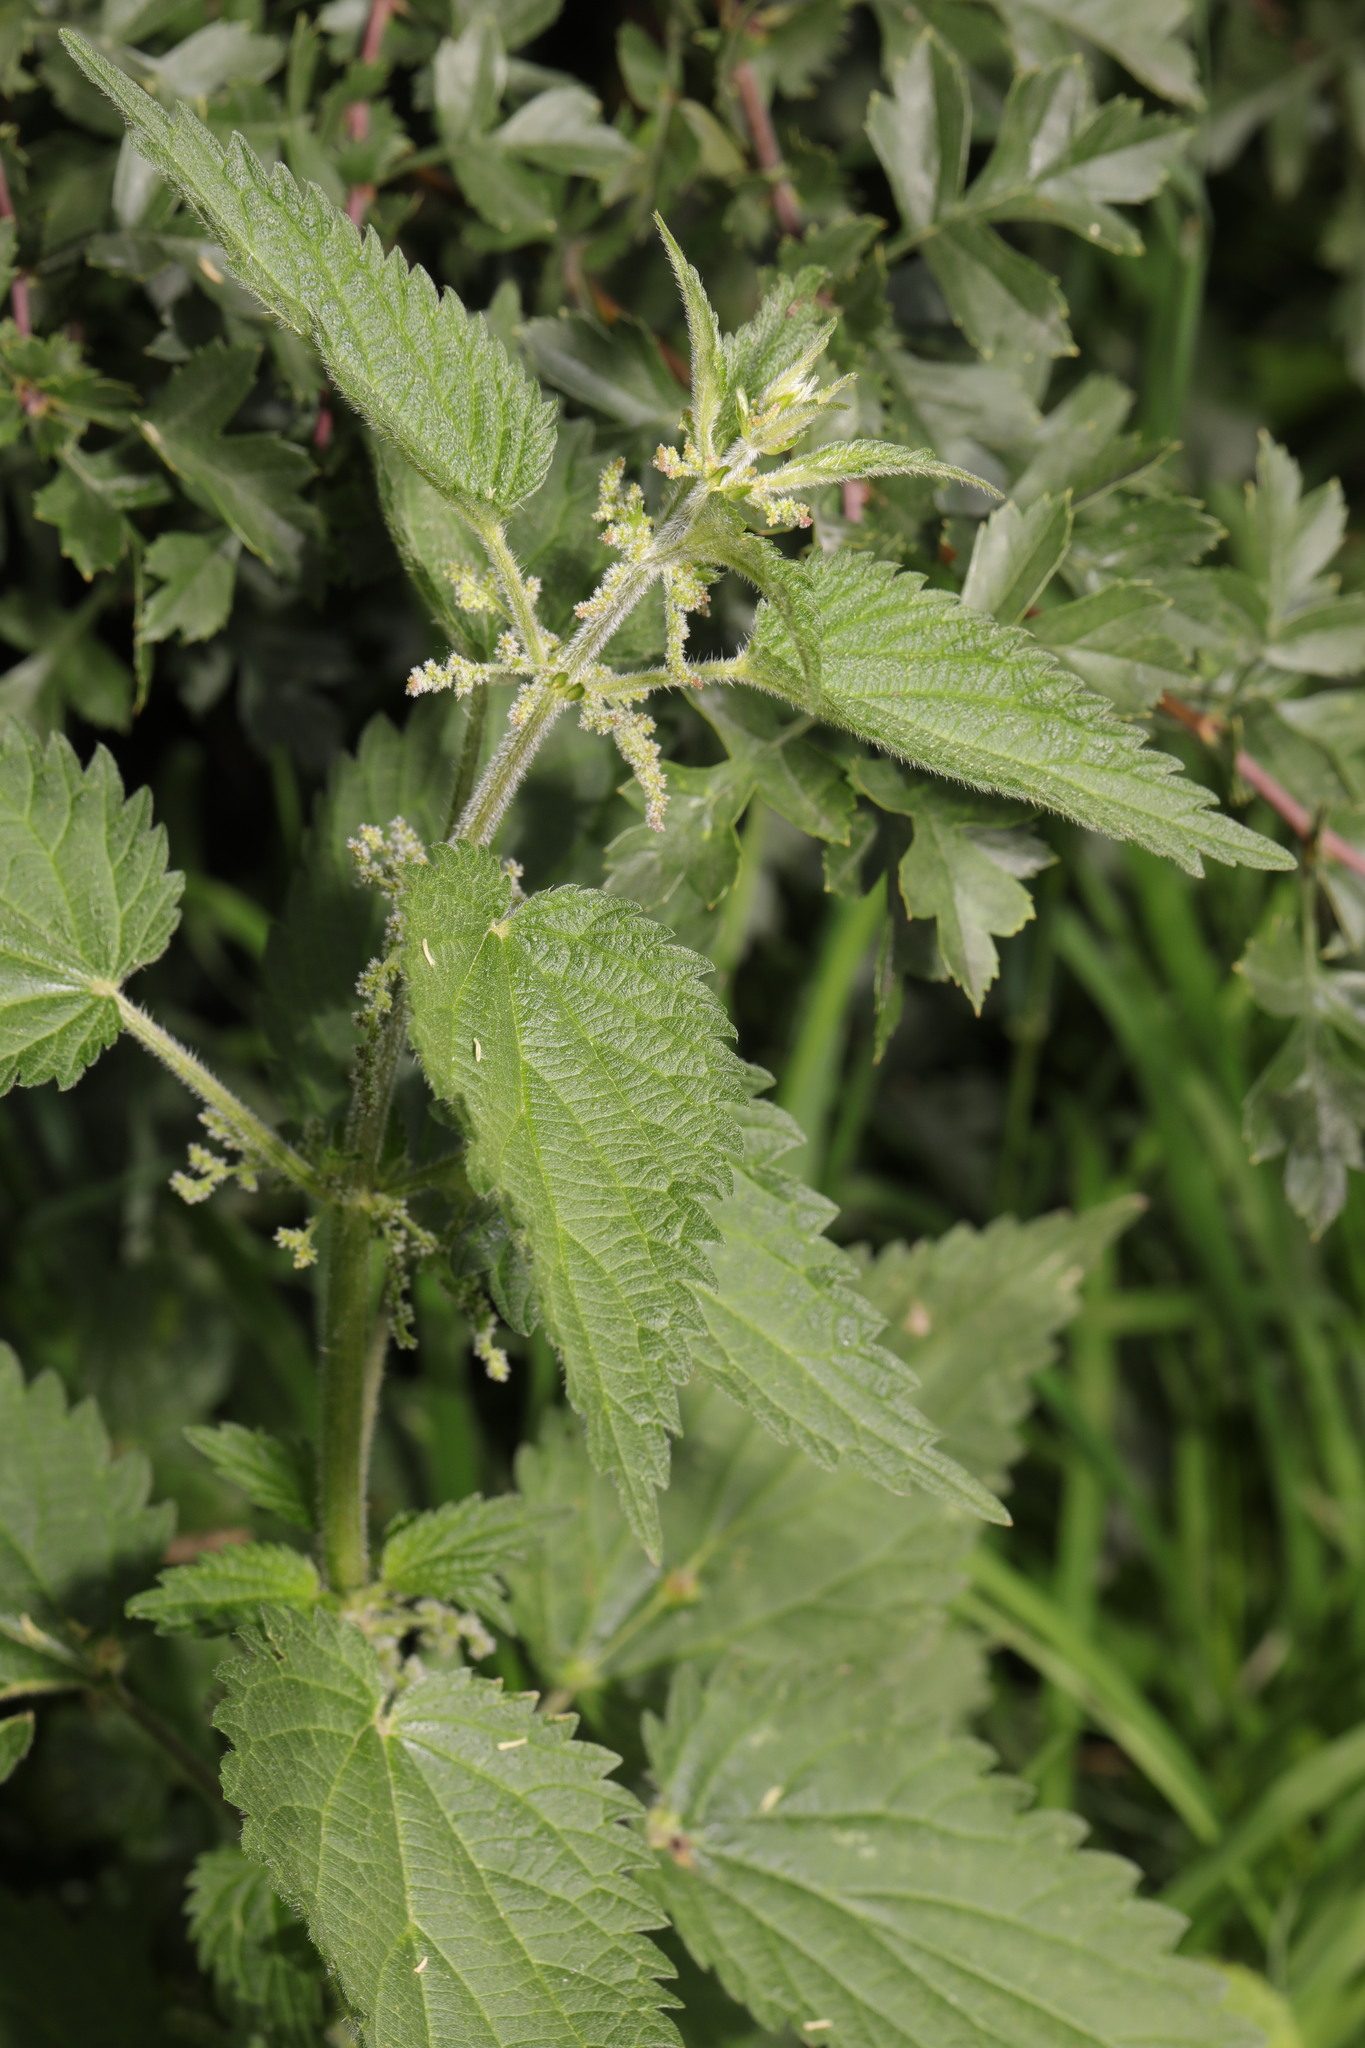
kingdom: Plantae
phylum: Tracheophyta
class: Magnoliopsida
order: Rosales
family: Urticaceae
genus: Urtica
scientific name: Urtica dioica
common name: Common nettle
